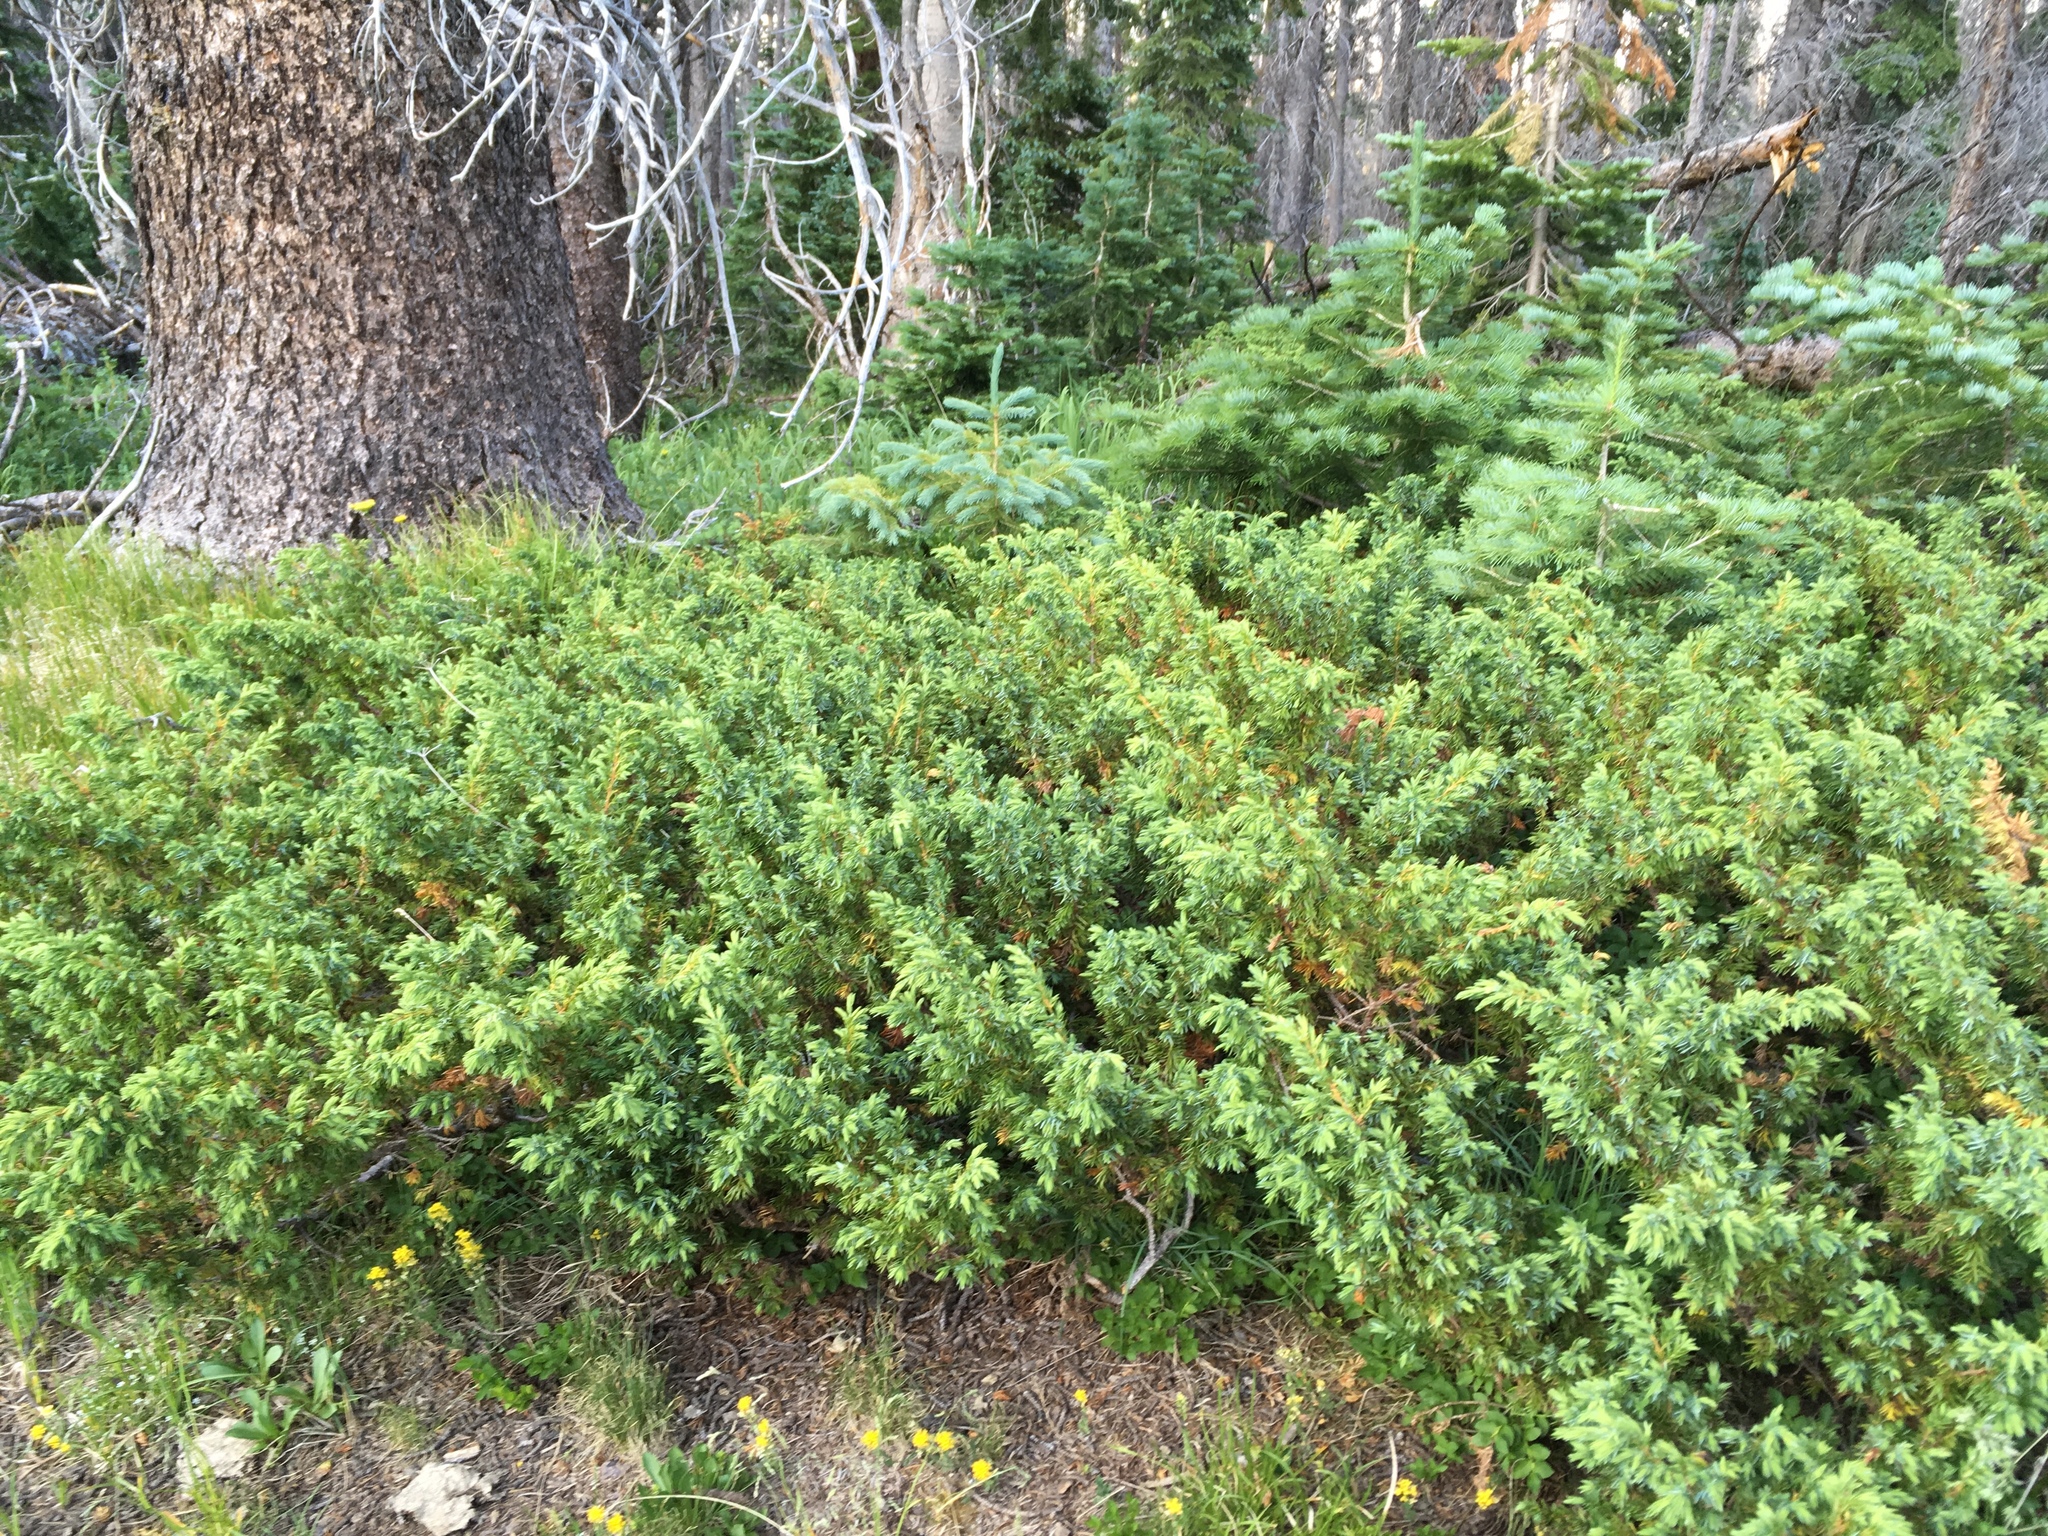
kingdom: Plantae
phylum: Tracheophyta
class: Pinopsida
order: Pinales
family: Cupressaceae
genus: Juniperus
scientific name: Juniperus communis
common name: Common juniper
